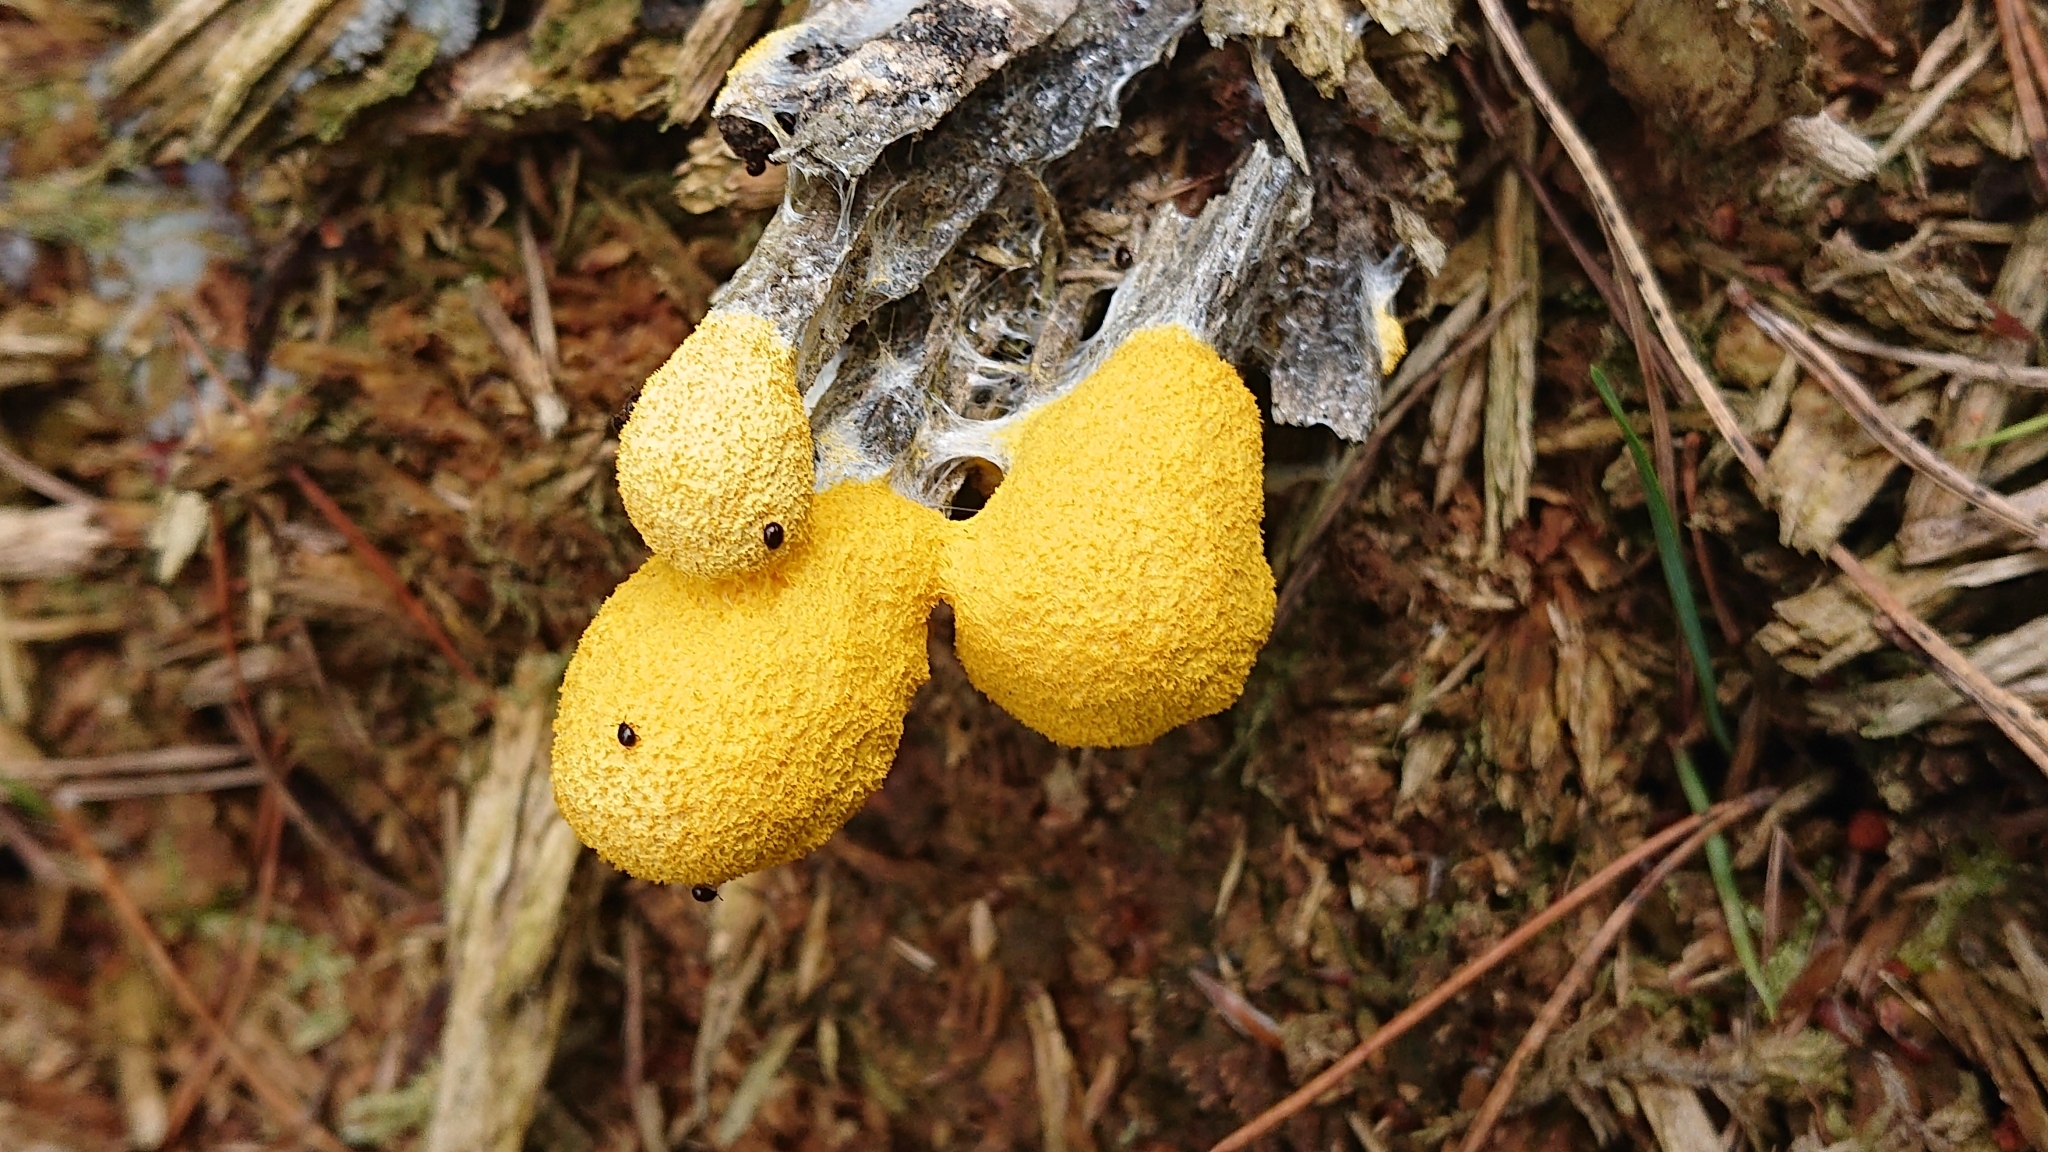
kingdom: Protozoa
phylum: Mycetozoa
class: Myxomycetes
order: Physarales
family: Physaraceae
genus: Fuligo
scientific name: Fuligo septica
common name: Dog vomit slime mold
